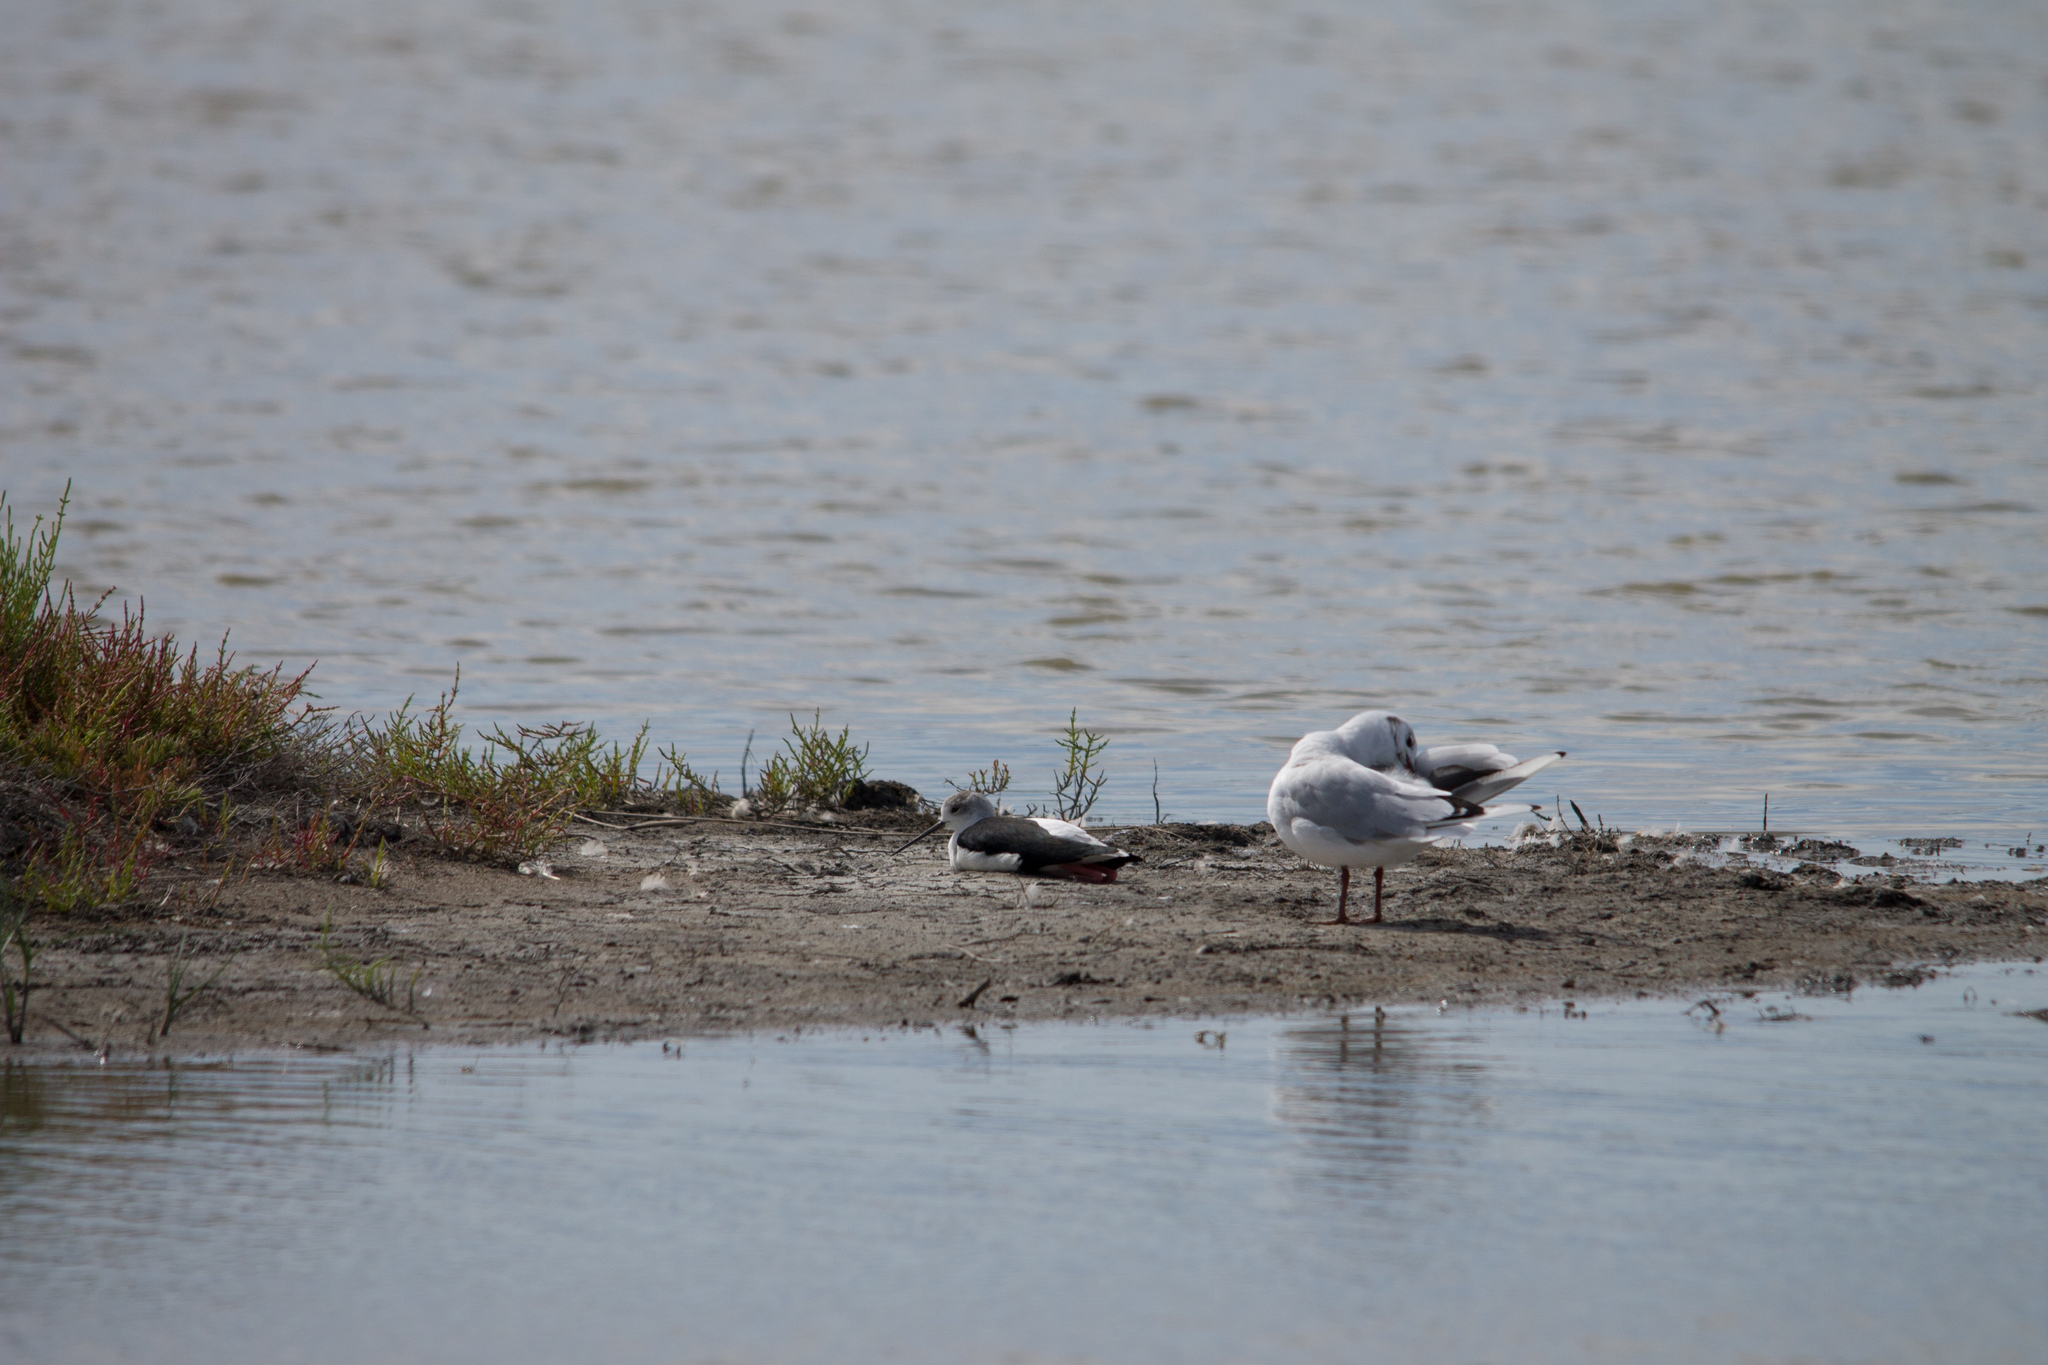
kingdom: Animalia
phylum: Chordata
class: Aves
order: Charadriiformes
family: Laridae
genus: Chroicocephalus
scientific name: Chroicocephalus ridibundus
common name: Black-headed gull
